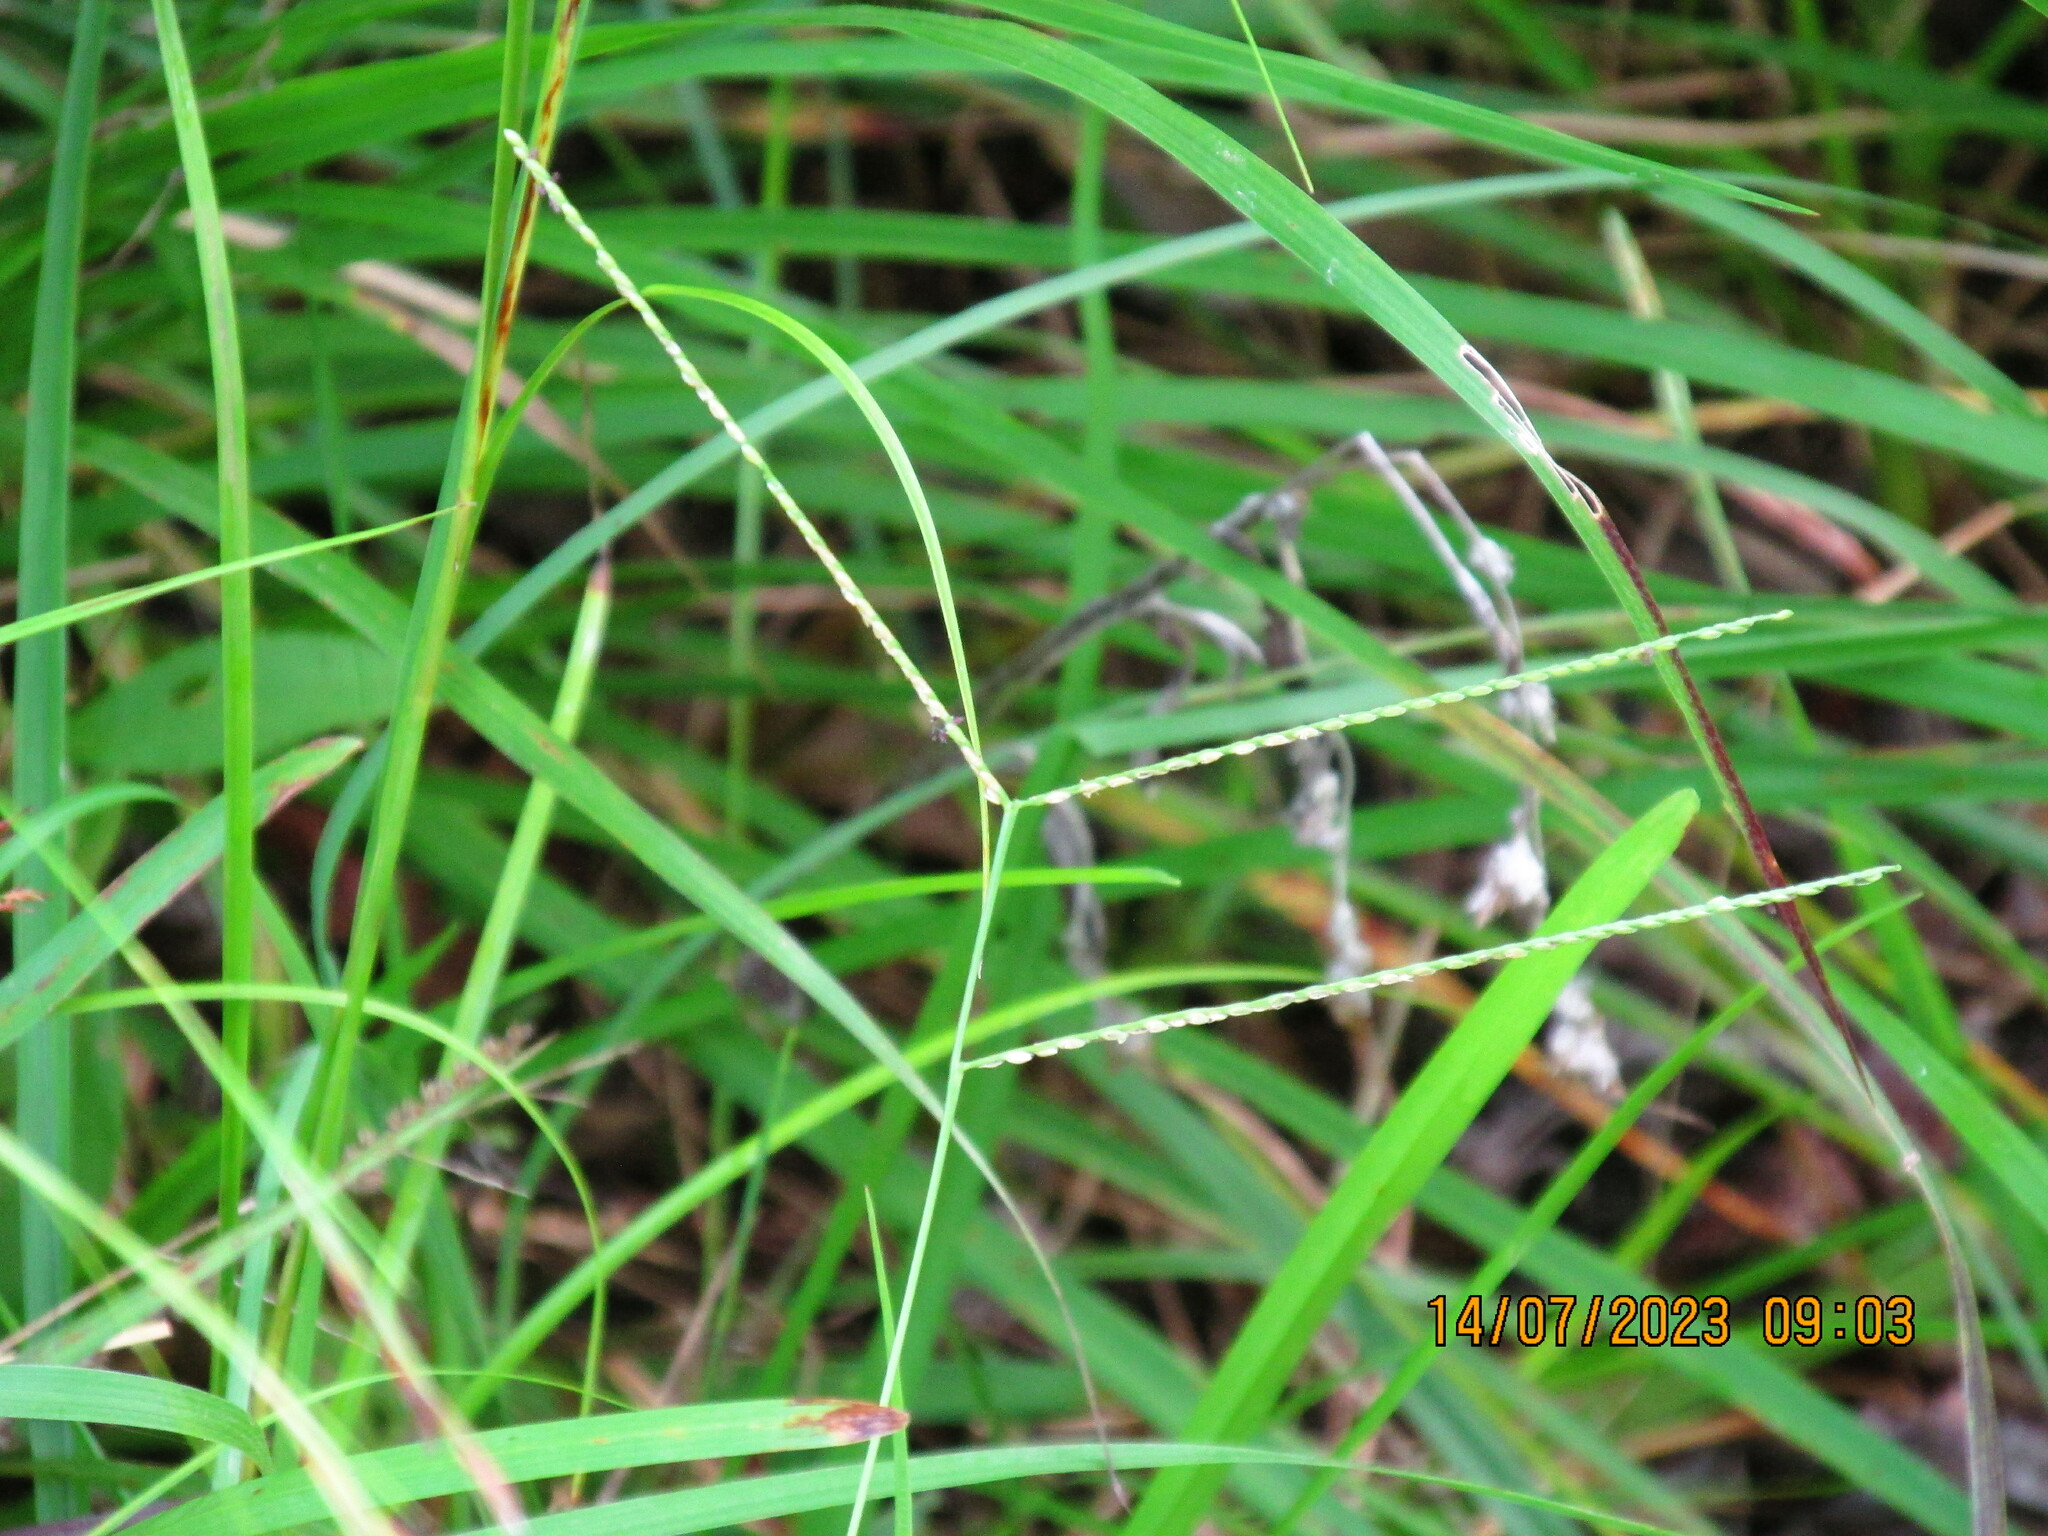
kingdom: Plantae
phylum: Tracheophyta
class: Liliopsida
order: Poales
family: Poaceae
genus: Axonopus
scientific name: Axonopus fissifolius
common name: Common carpetgrass
